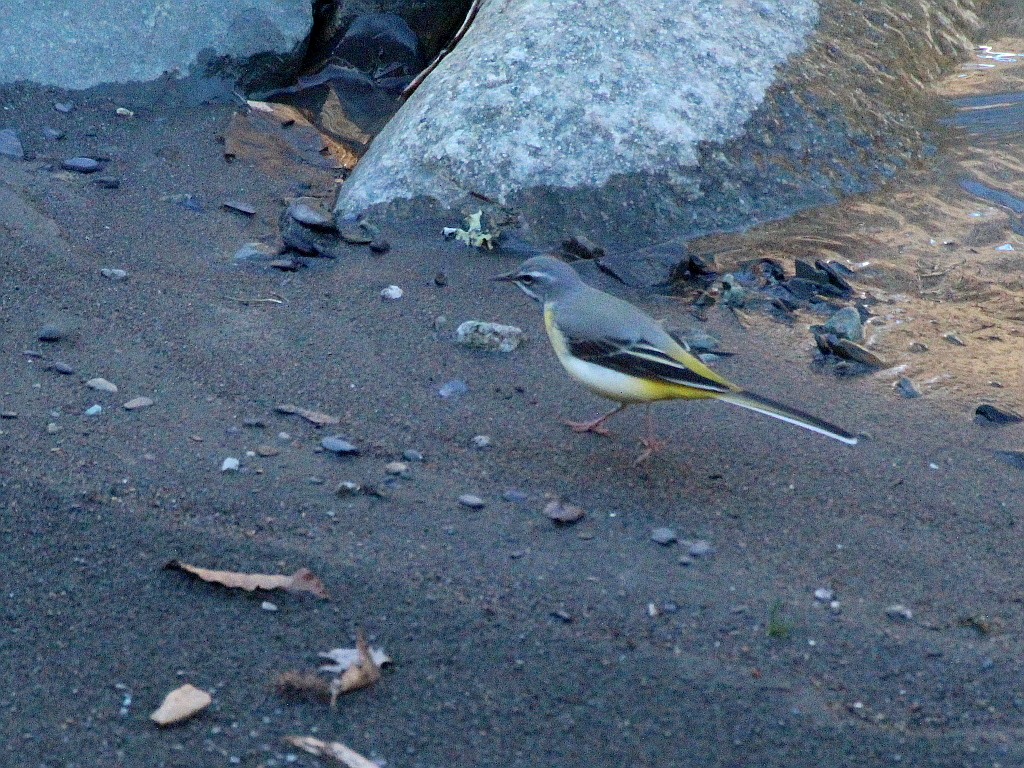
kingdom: Animalia
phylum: Chordata
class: Aves
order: Passeriformes
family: Motacillidae
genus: Motacilla
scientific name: Motacilla cinerea
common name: Grey wagtail
